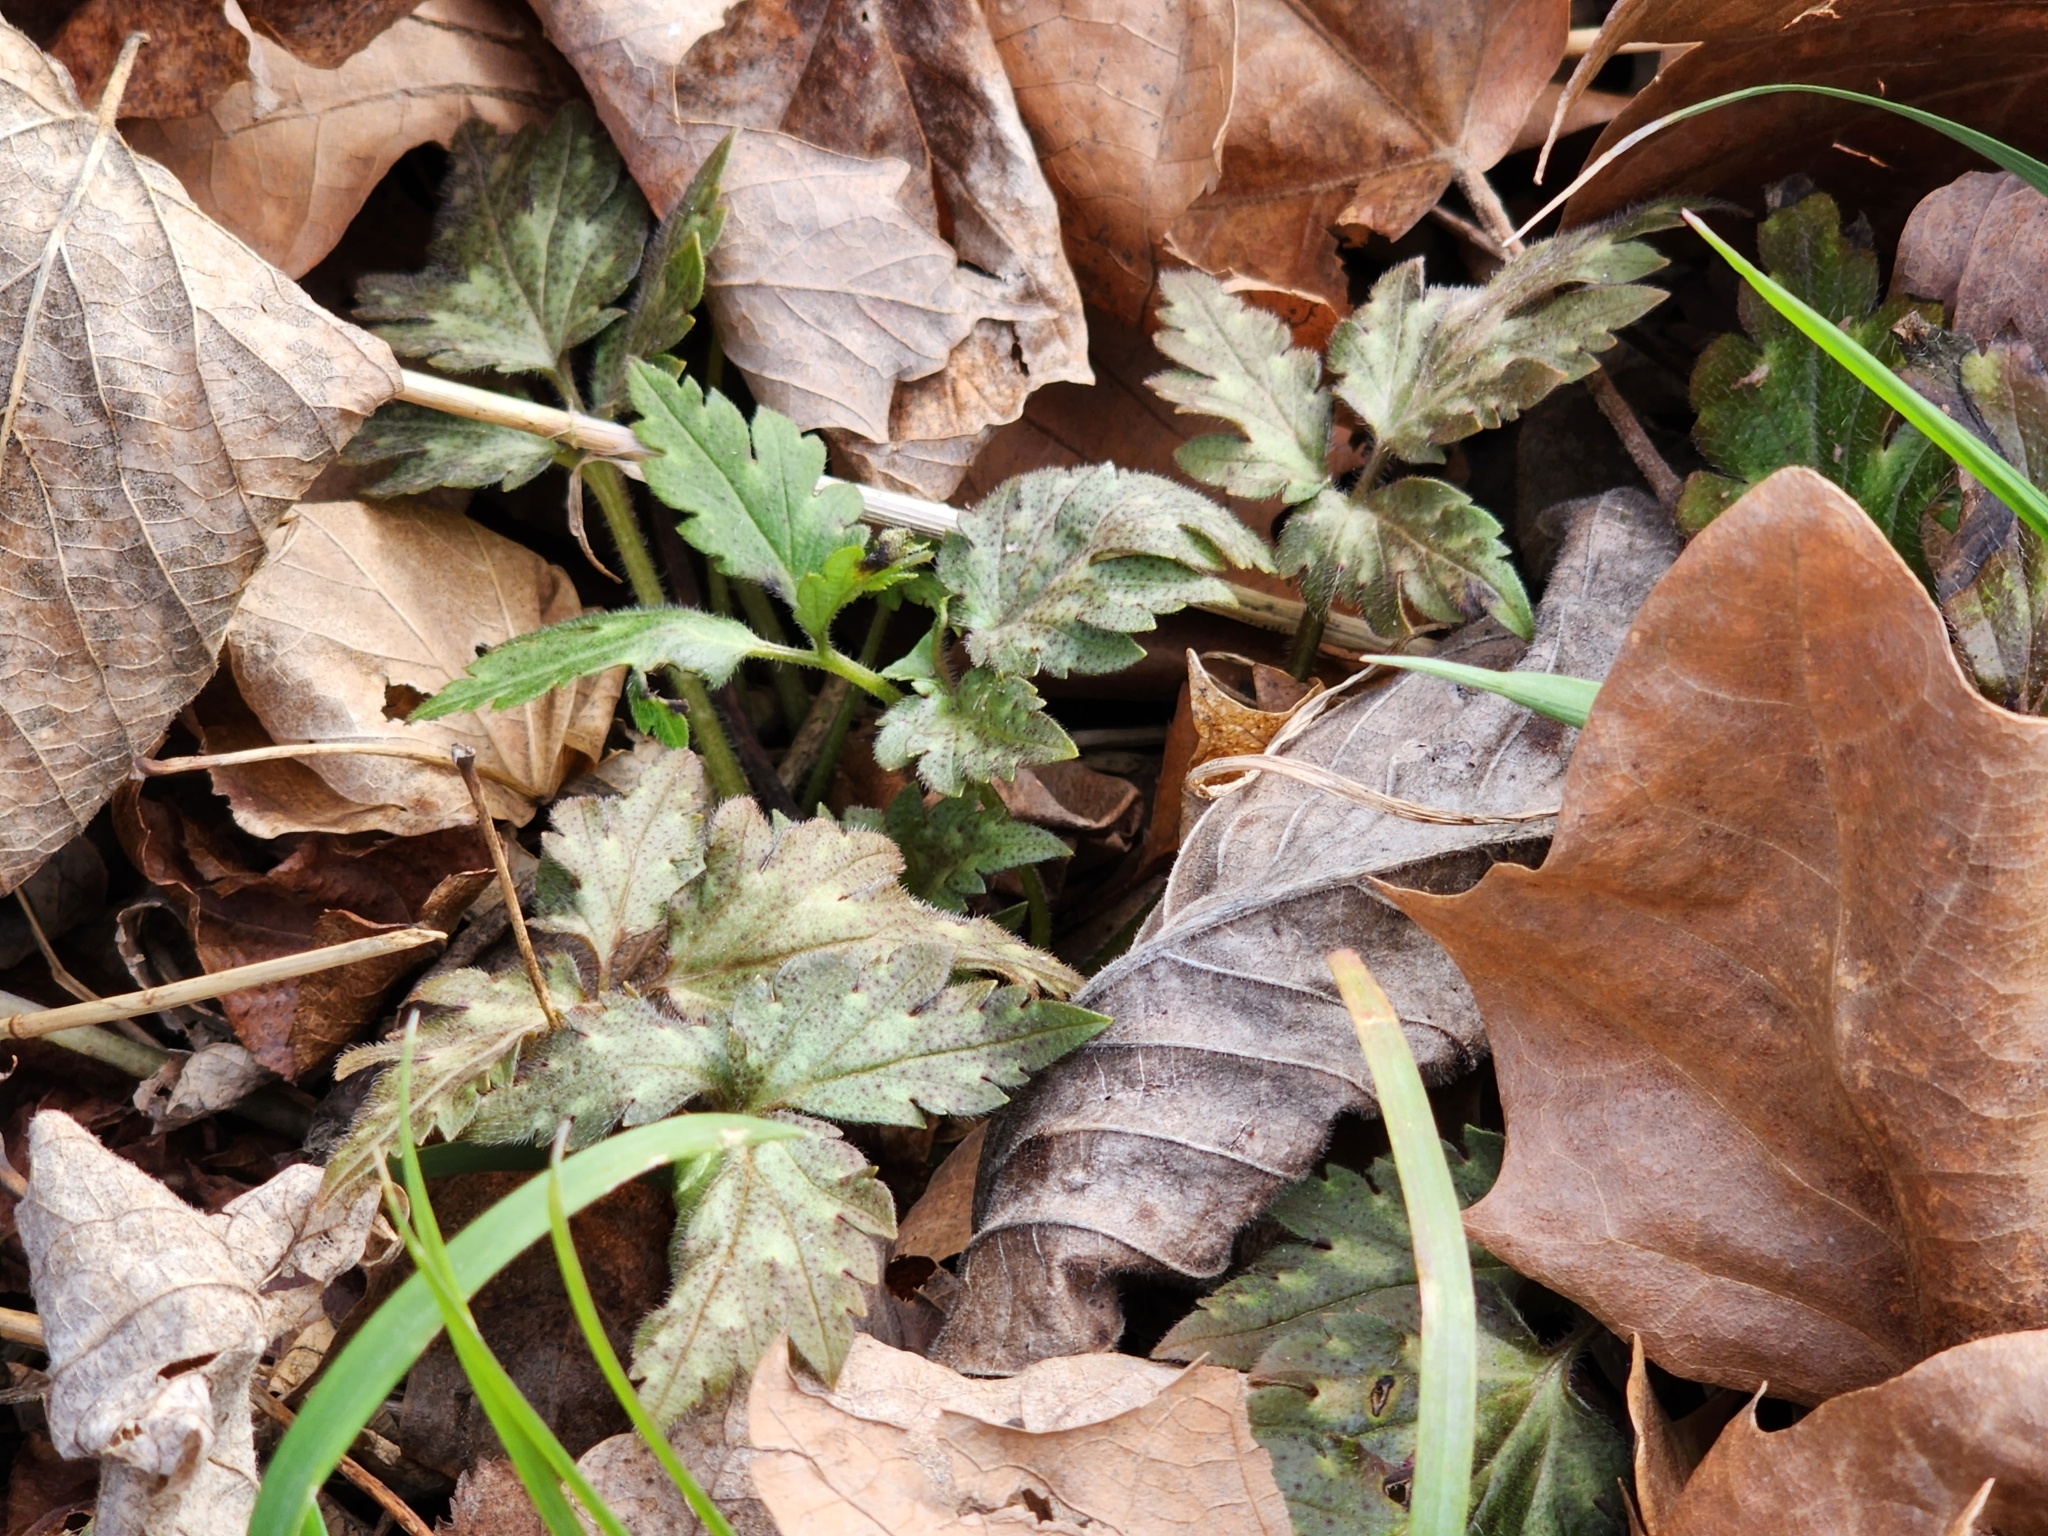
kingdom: Plantae
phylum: Tracheophyta
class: Magnoliopsida
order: Boraginales
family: Hydrophyllaceae
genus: Phacelia
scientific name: Phacelia bipinnatifida
